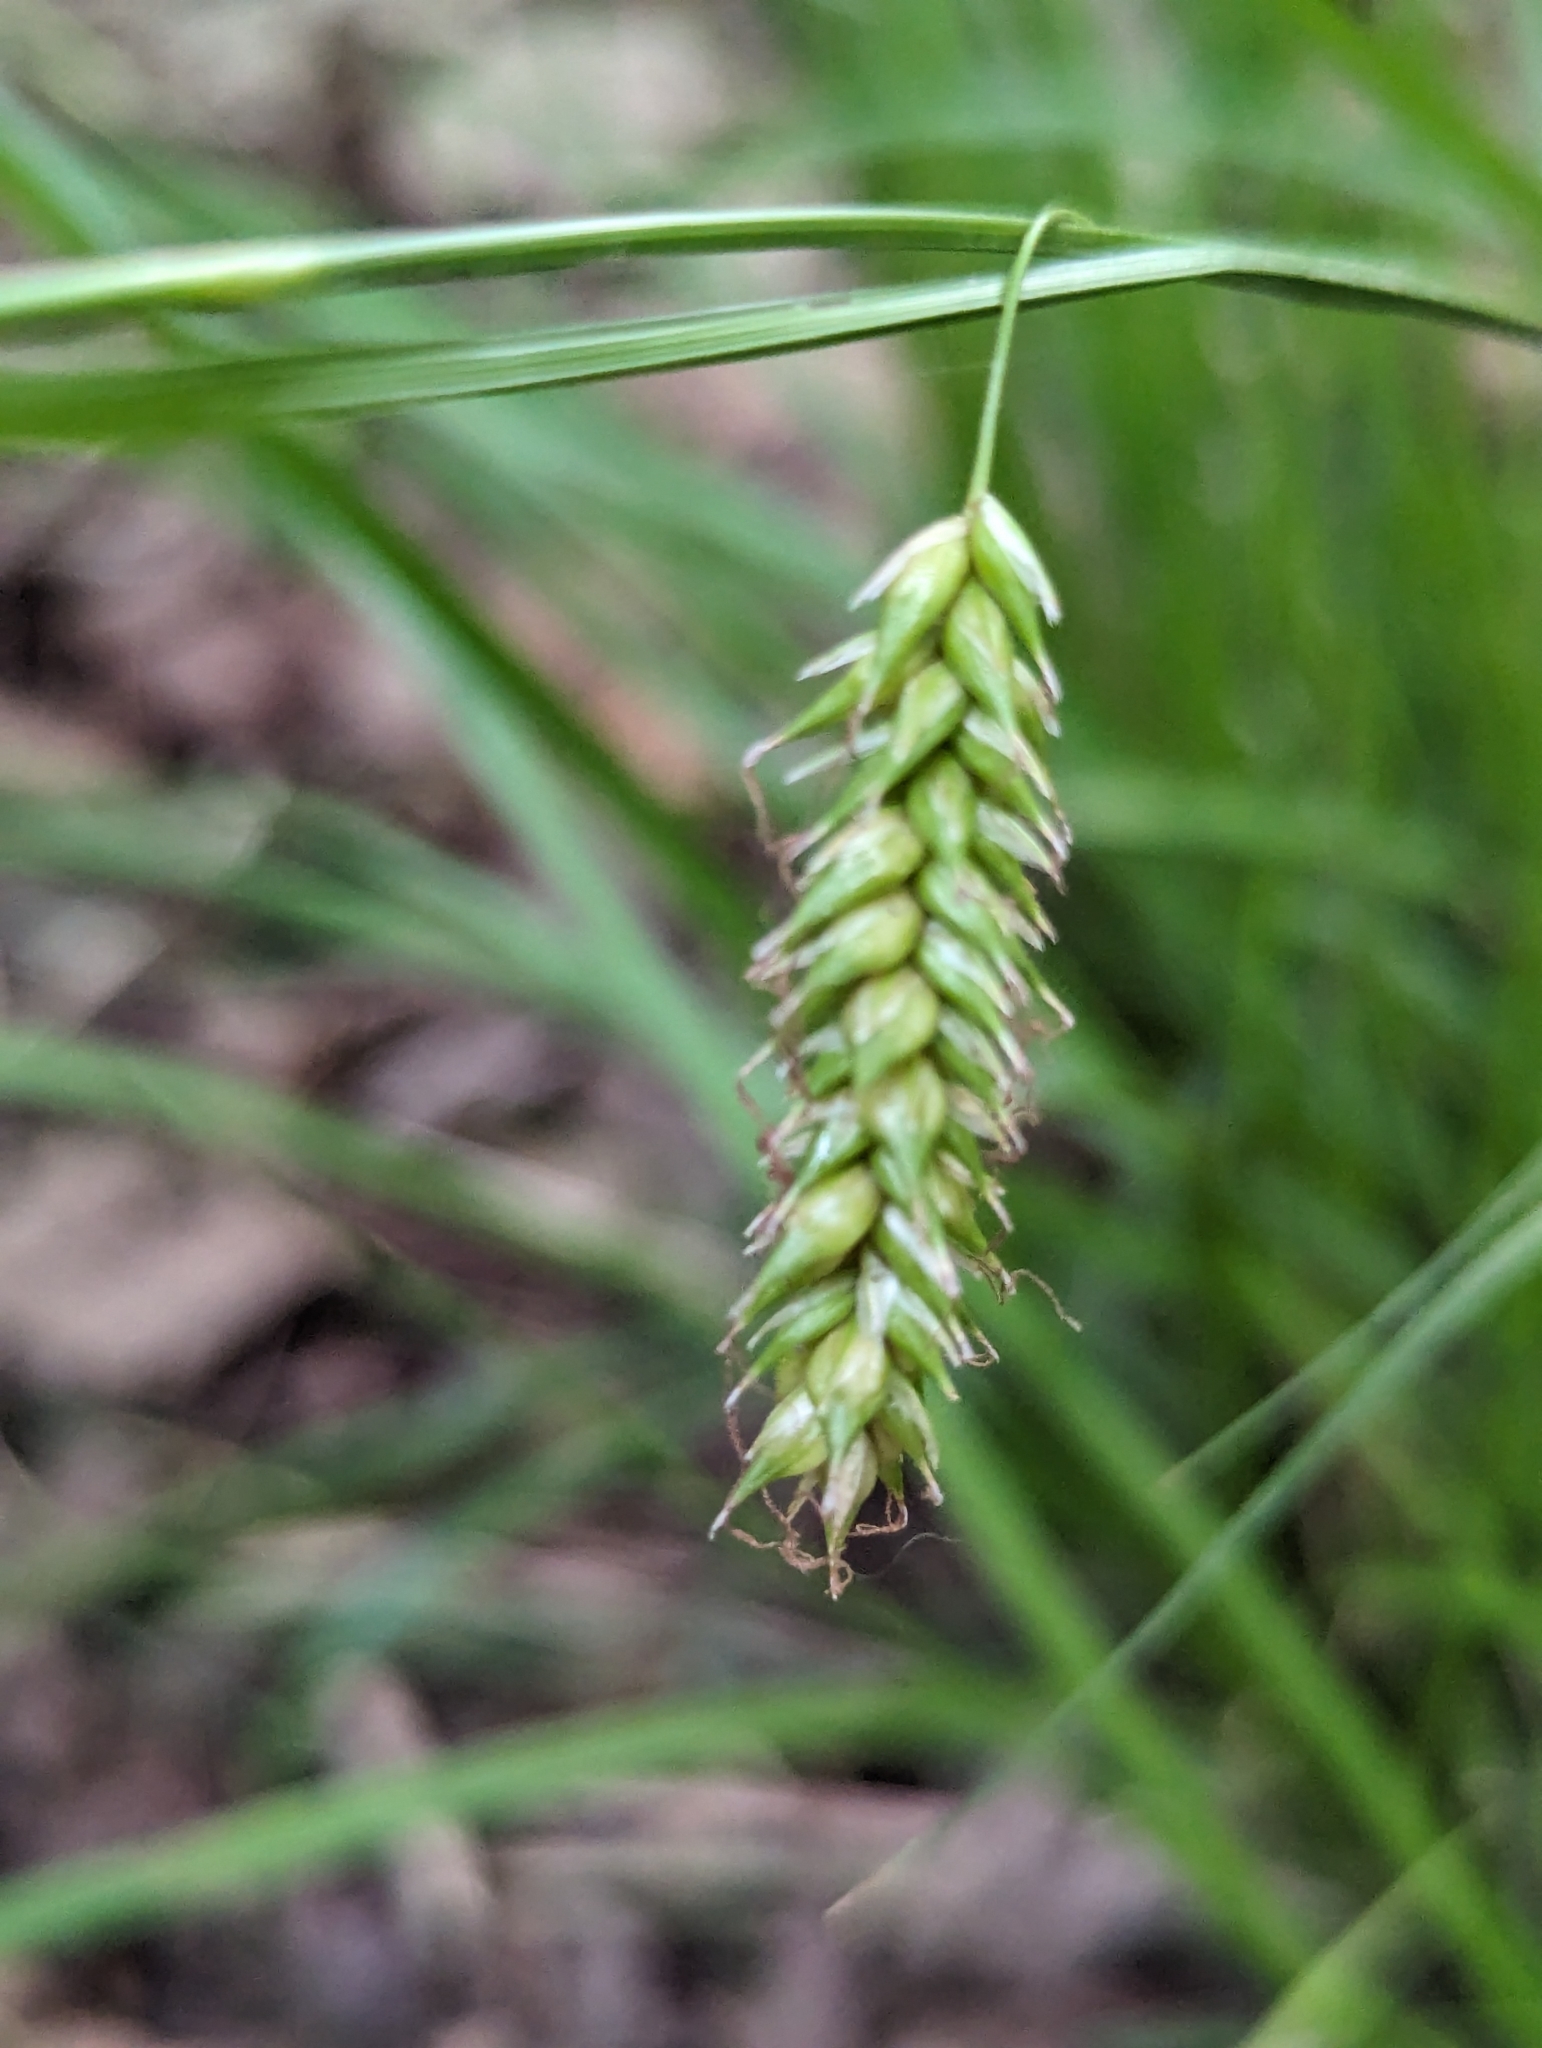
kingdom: Plantae
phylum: Tracheophyta
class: Liliopsida
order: Poales
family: Cyperaceae
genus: Carex
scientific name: Carex cherokeensis
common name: Cherokee sedge
